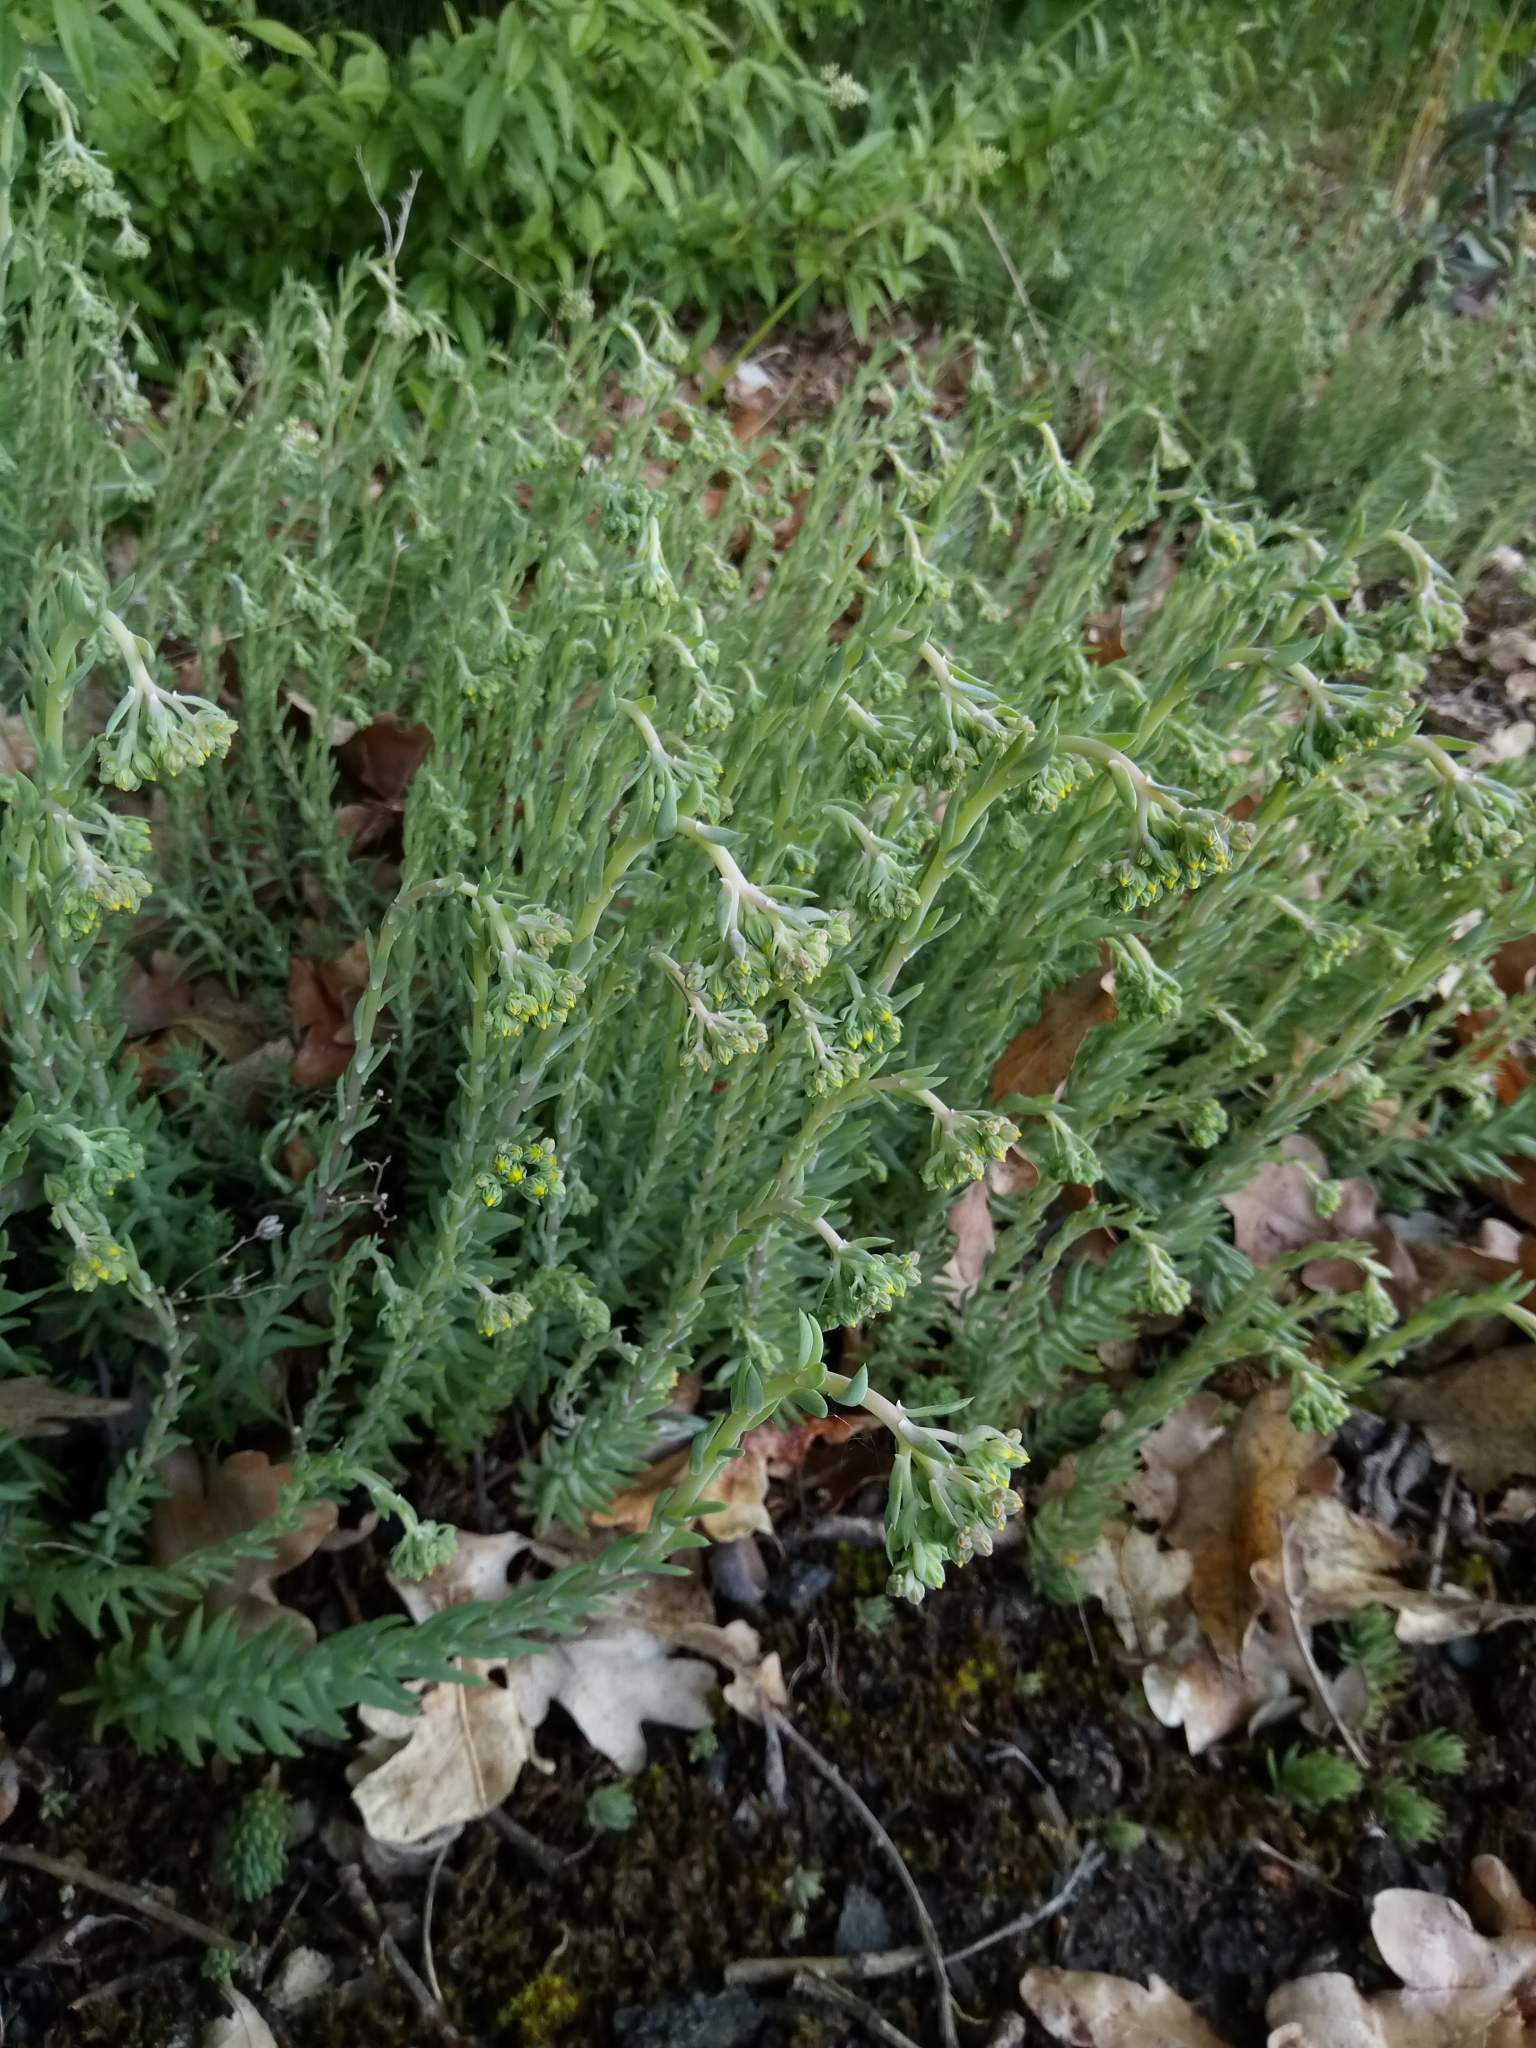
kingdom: Plantae
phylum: Tracheophyta
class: Magnoliopsida
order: Saxifragales
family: Crassulaceae
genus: Petrosedum
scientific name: Petrosedum rupestre
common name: Jenny's stonecrop
